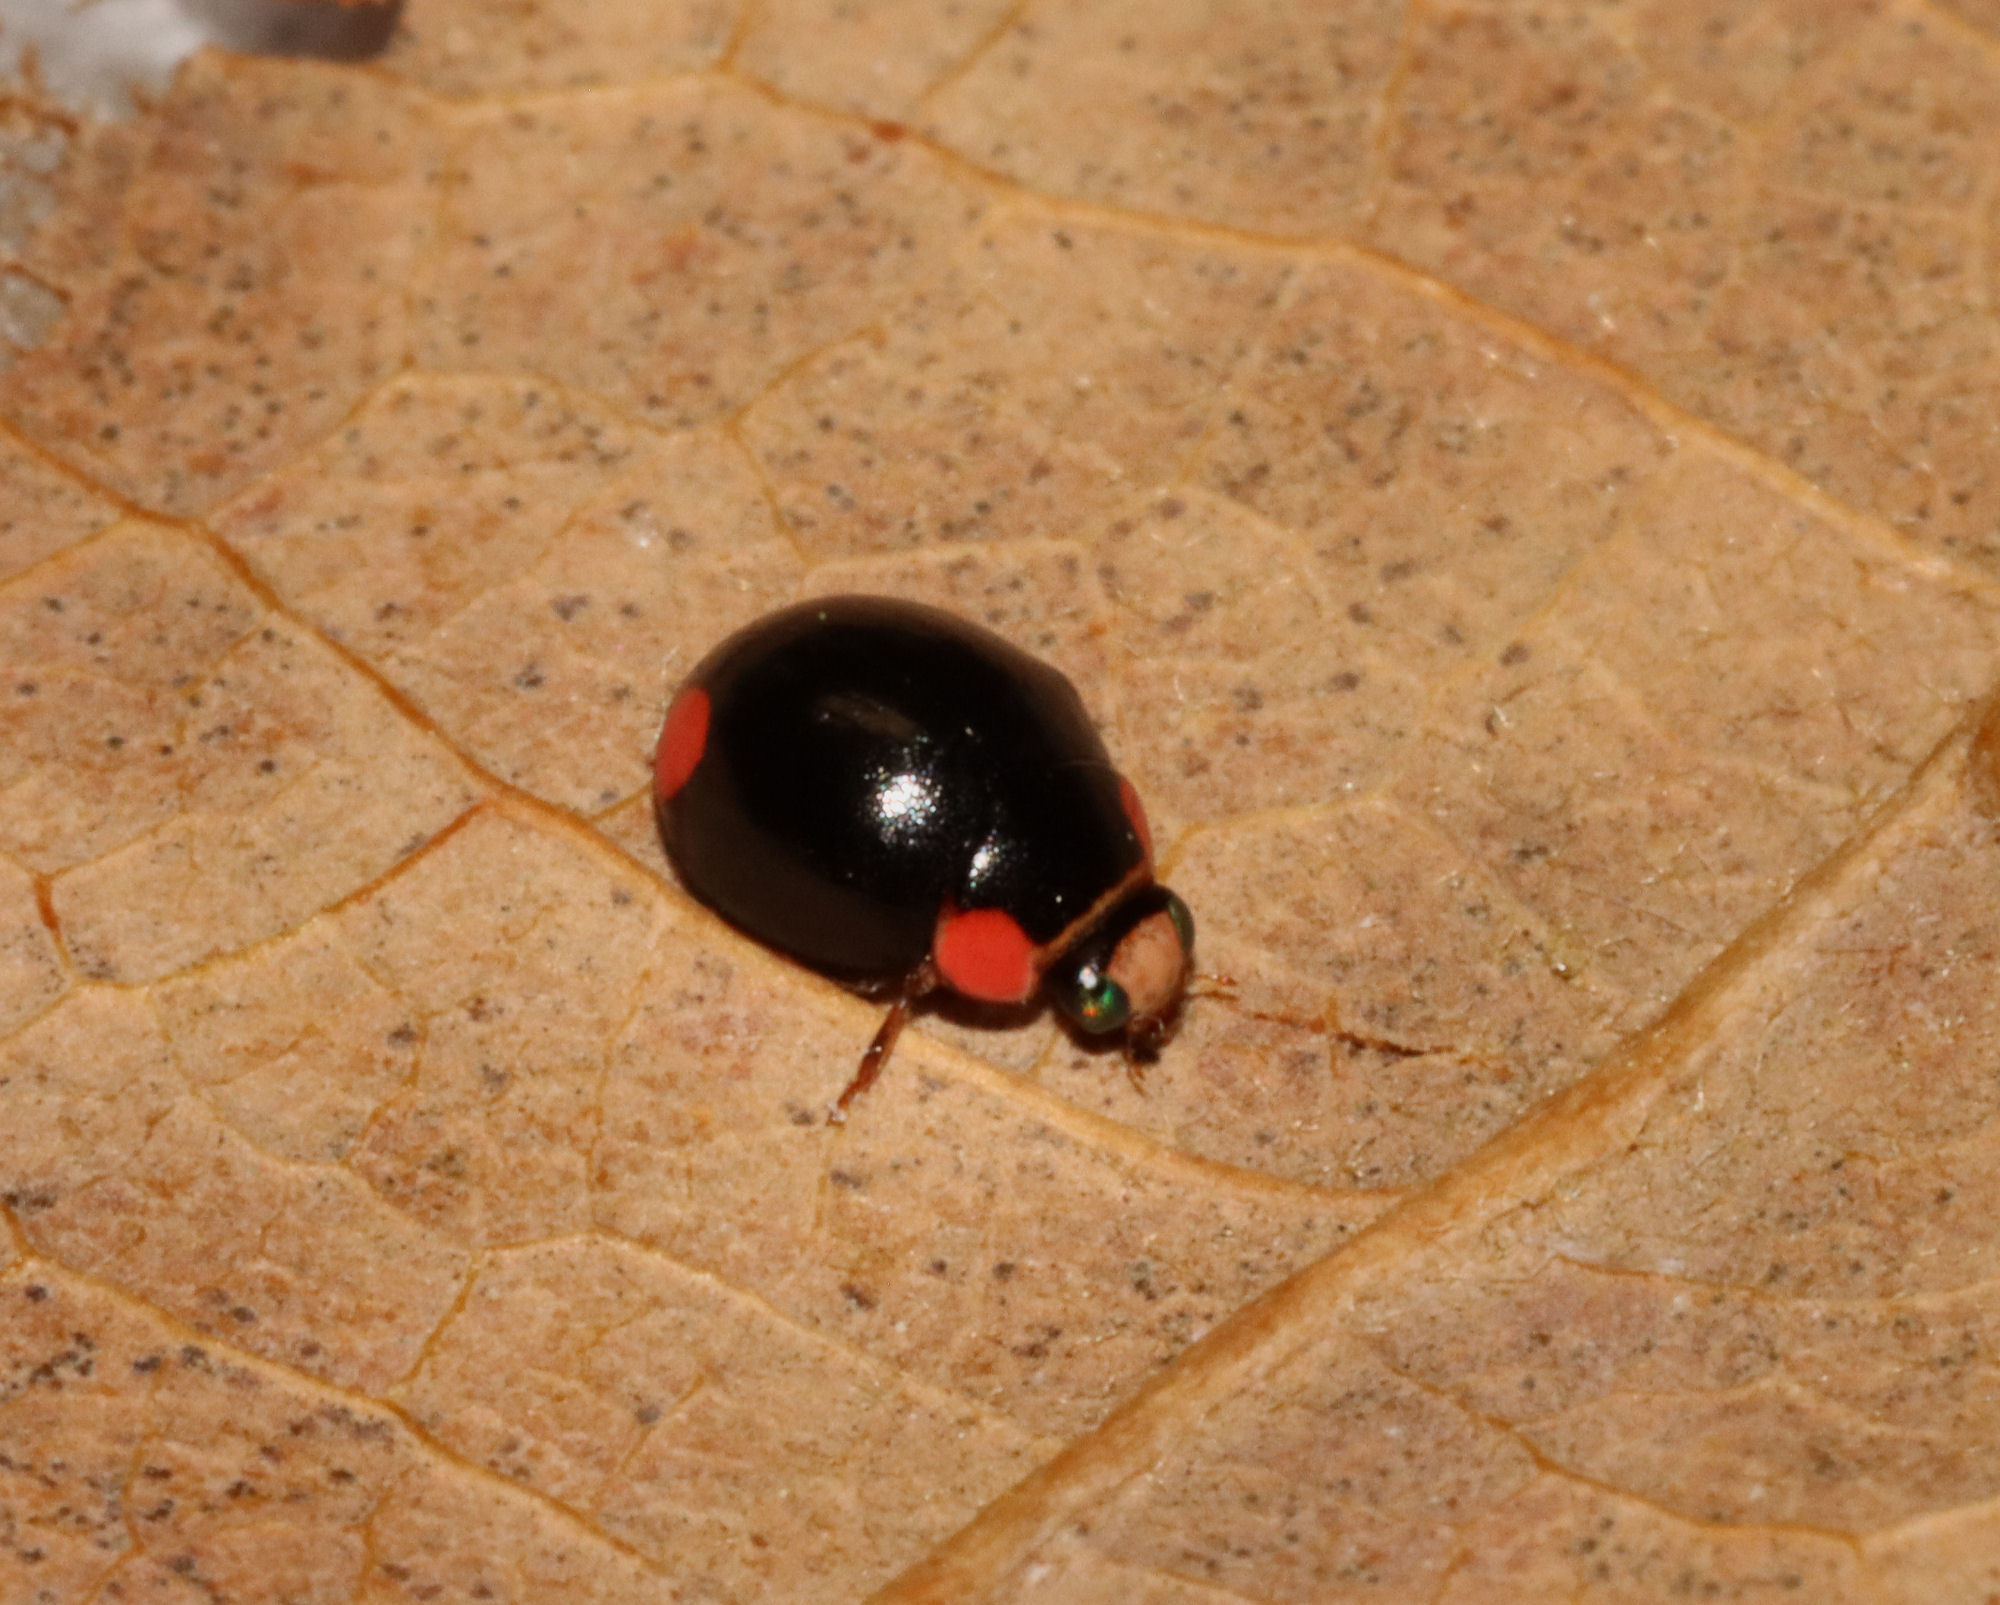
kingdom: Animalia
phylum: Arthropoda
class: Insecta
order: Coleoptera
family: Coccinellidae
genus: Hyperaspis
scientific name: Hyperaspis bigeminata
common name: Bigeminate sigil lady beetle
